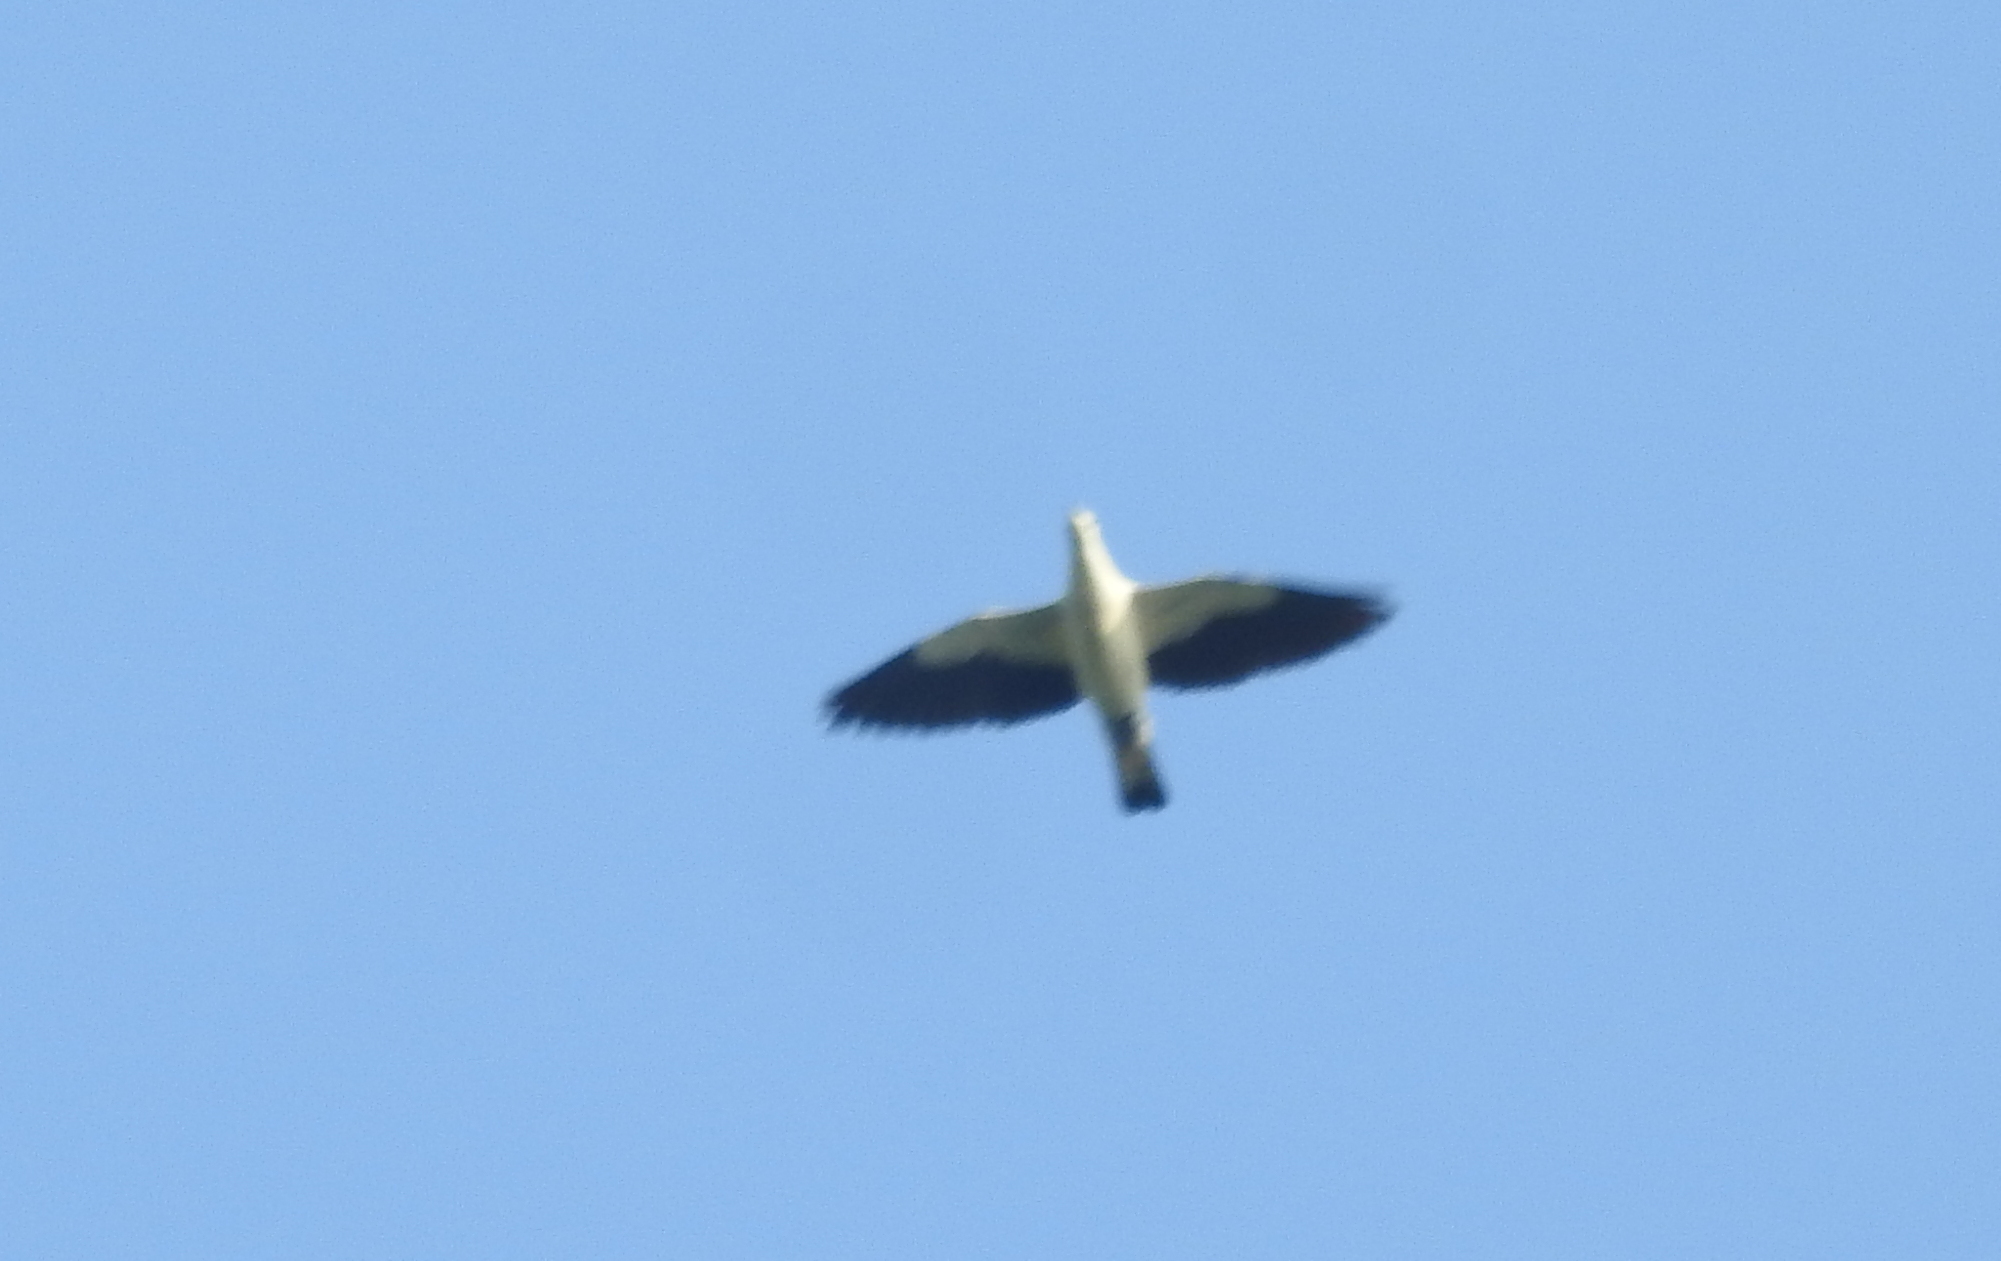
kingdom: Animalia
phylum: Chordata
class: Aves
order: Columbiformes
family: Columbidae
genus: Ducula
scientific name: Ducula bicolor
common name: Pied imperial pigeon
